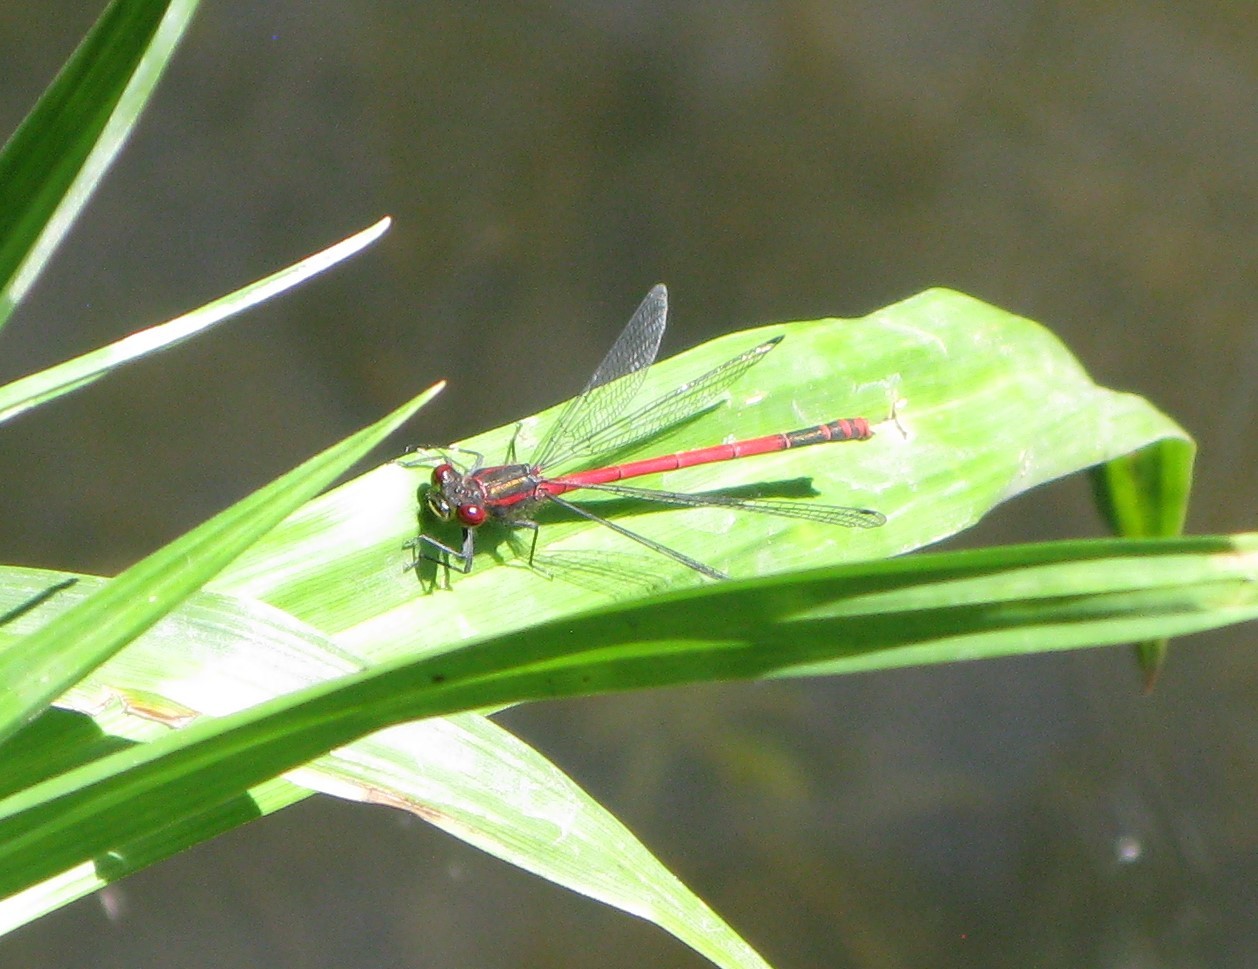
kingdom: Animalia
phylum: Arthropoda
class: Insecta
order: Odonata
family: Coenagrionidae
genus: Pyrrhosoma
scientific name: Pyrrhosoma nymphula
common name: Large red damsel
